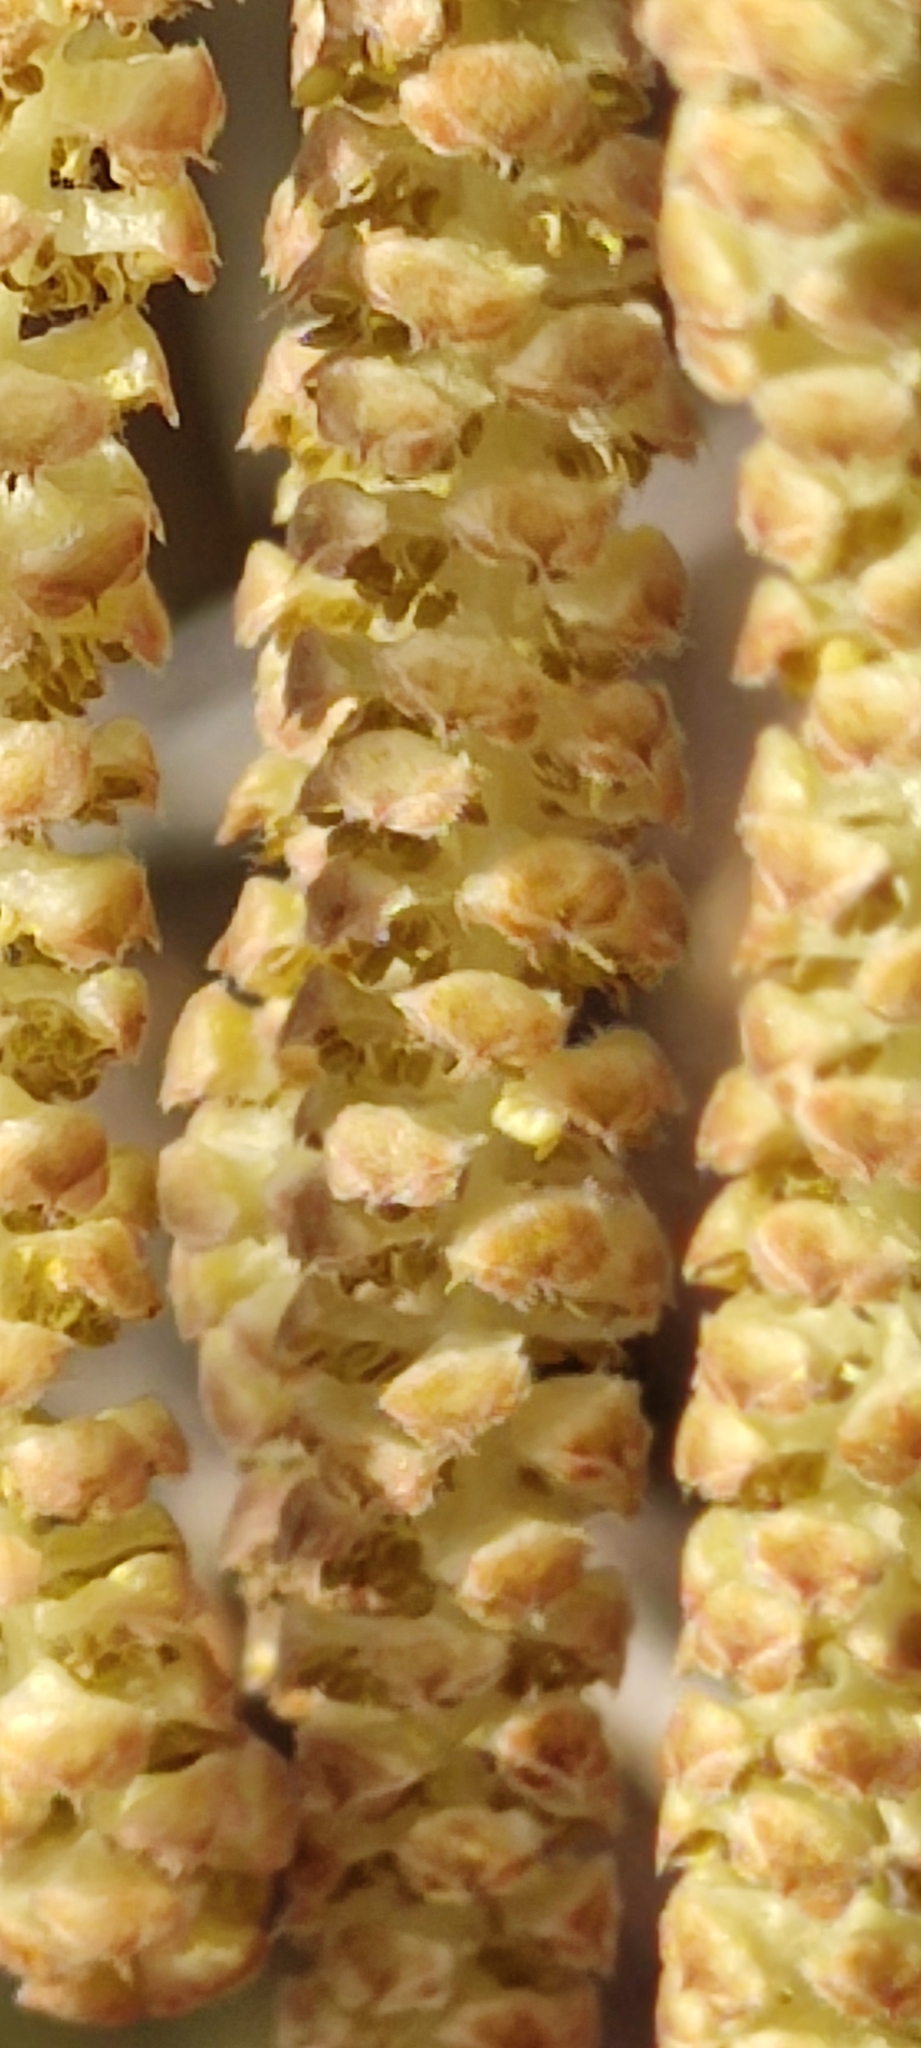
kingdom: Plantae
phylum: Tracheophyta
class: Magnoliopsida
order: Fagales
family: Betulaceae
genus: Corylus
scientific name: Corylus avellana
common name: European hazel
